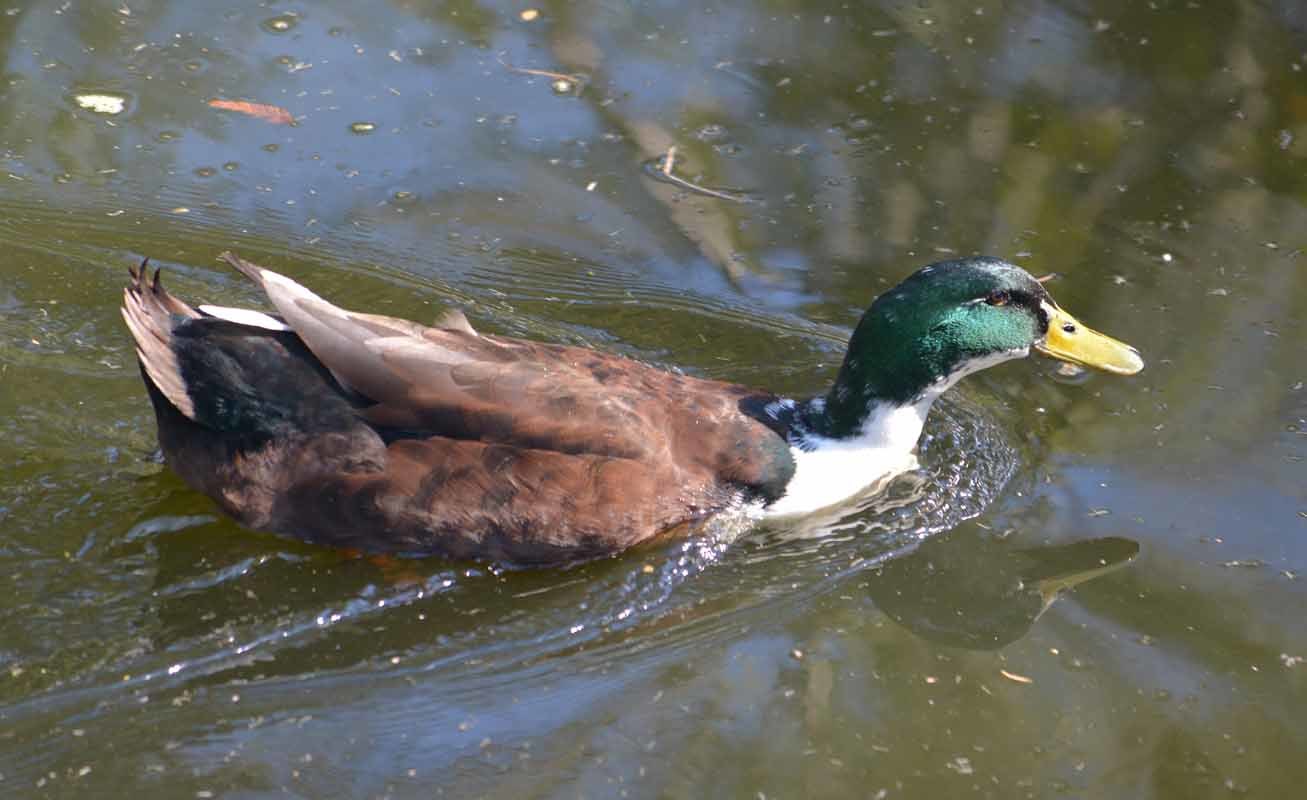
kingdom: Animalia
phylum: Chordata
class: Aves
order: Anseriformes
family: Anatidae
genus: Anas
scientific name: Anas platyrhynchos
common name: Mallard
